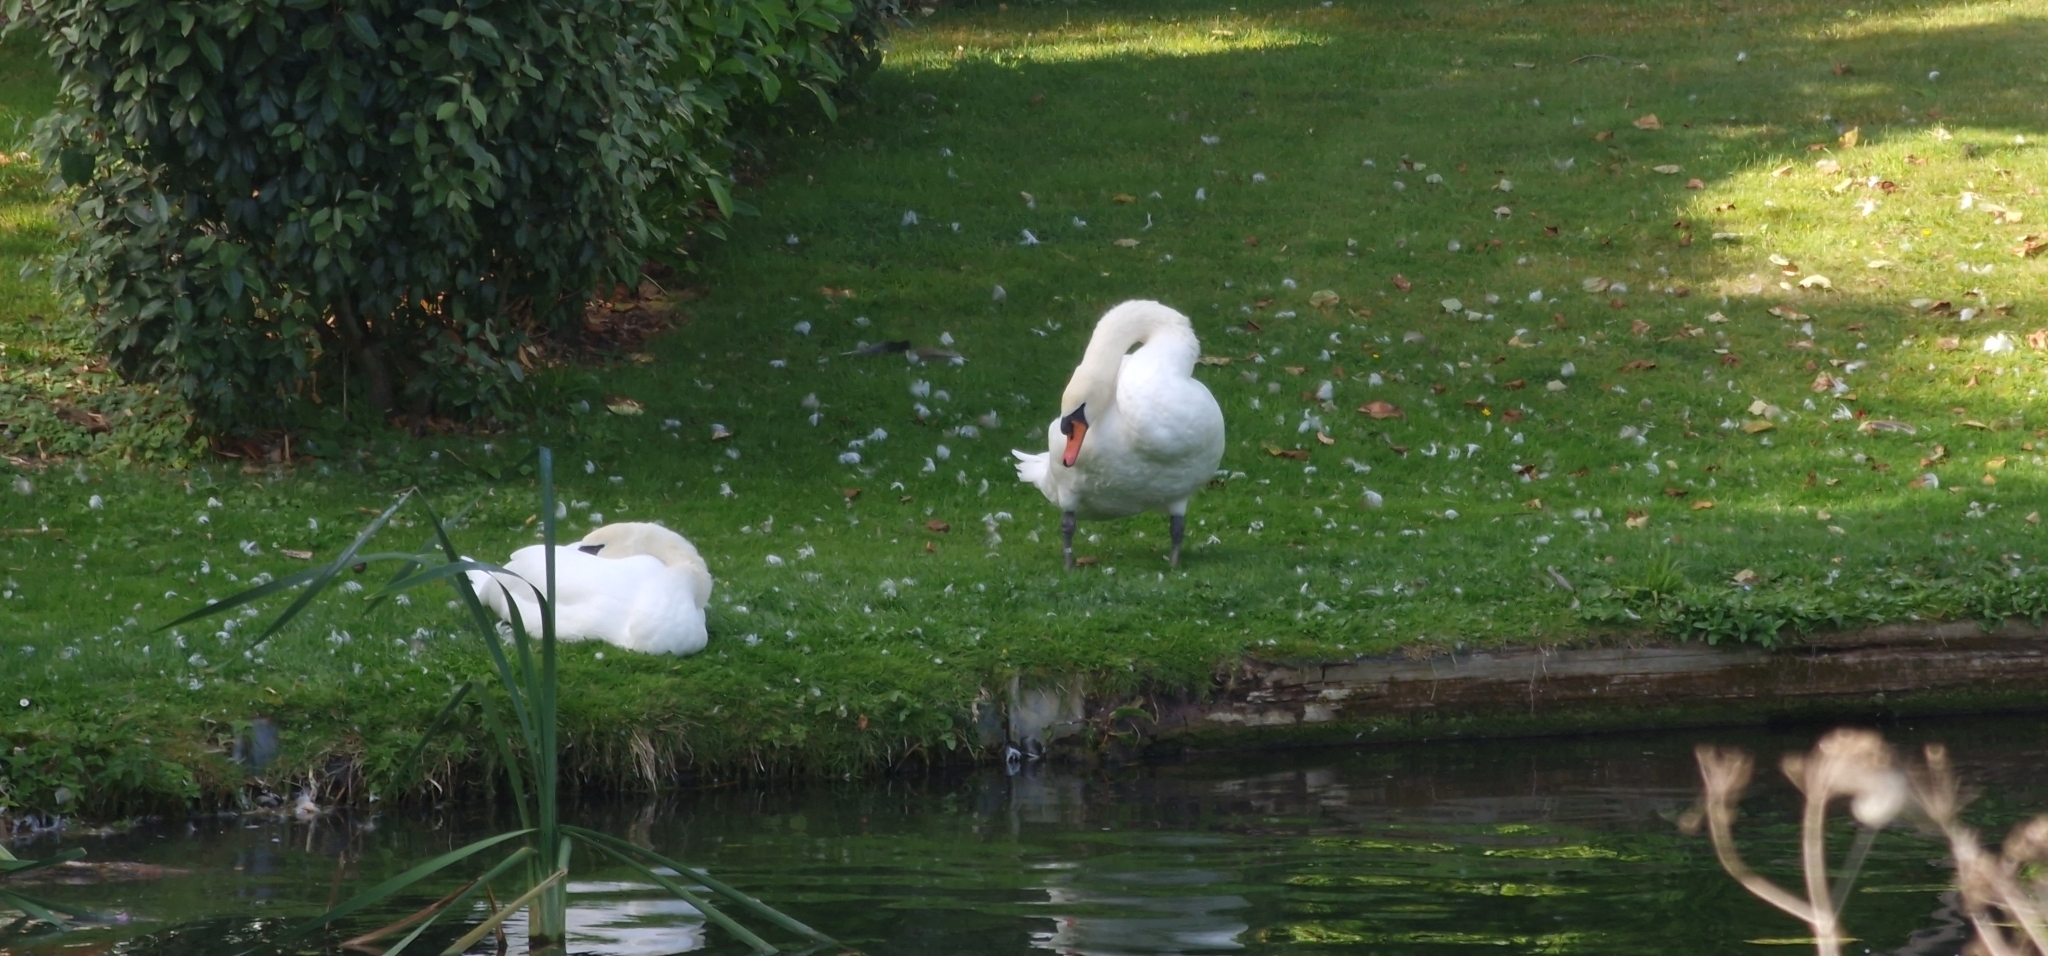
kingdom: Animalia
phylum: Chordata
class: Aves
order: Anseriformes
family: Anatidae
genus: Cygnus
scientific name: Cygnus olor
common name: Mute swan
